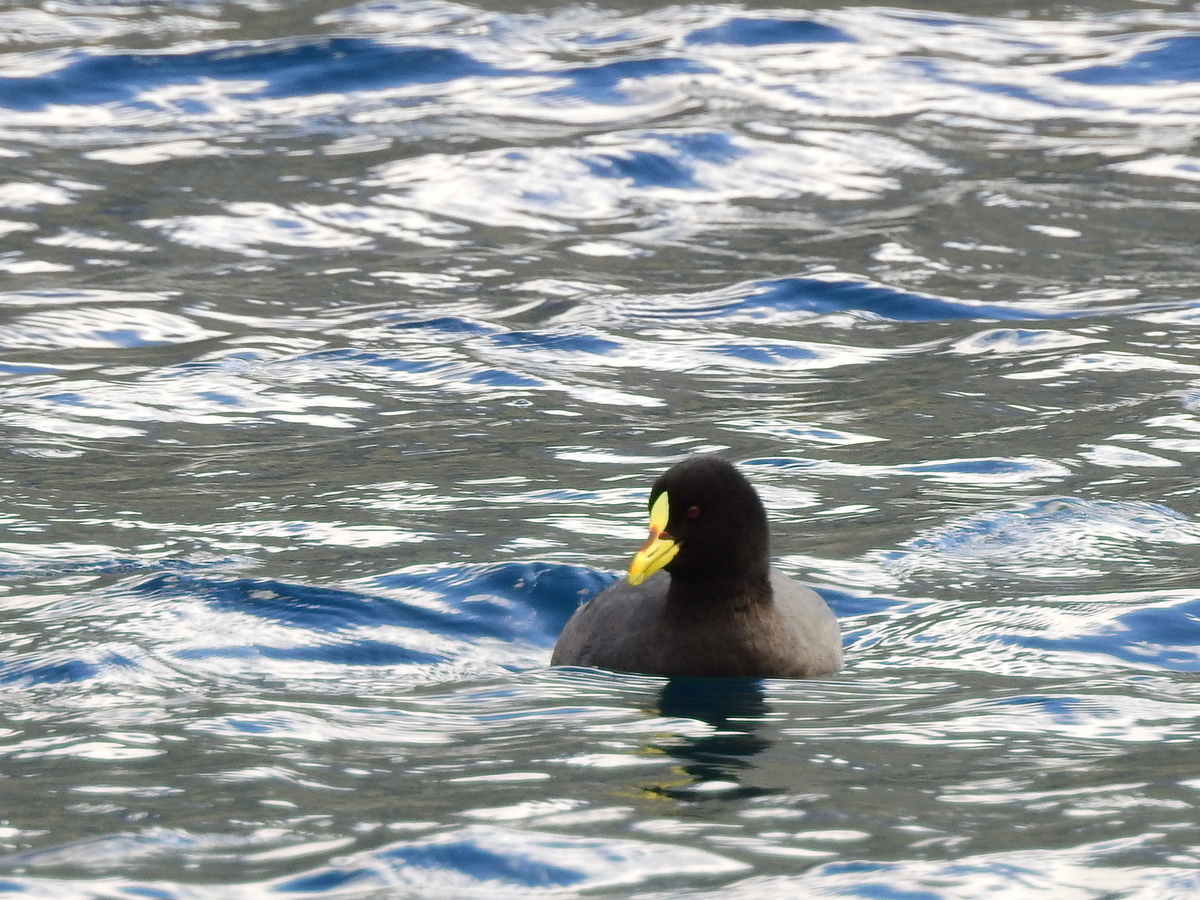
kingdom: Animalia
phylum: Chordata
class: Aves
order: Gruiformes
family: Rallidae
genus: Fulica
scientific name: Fulica armillata
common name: Red-gartered coot
